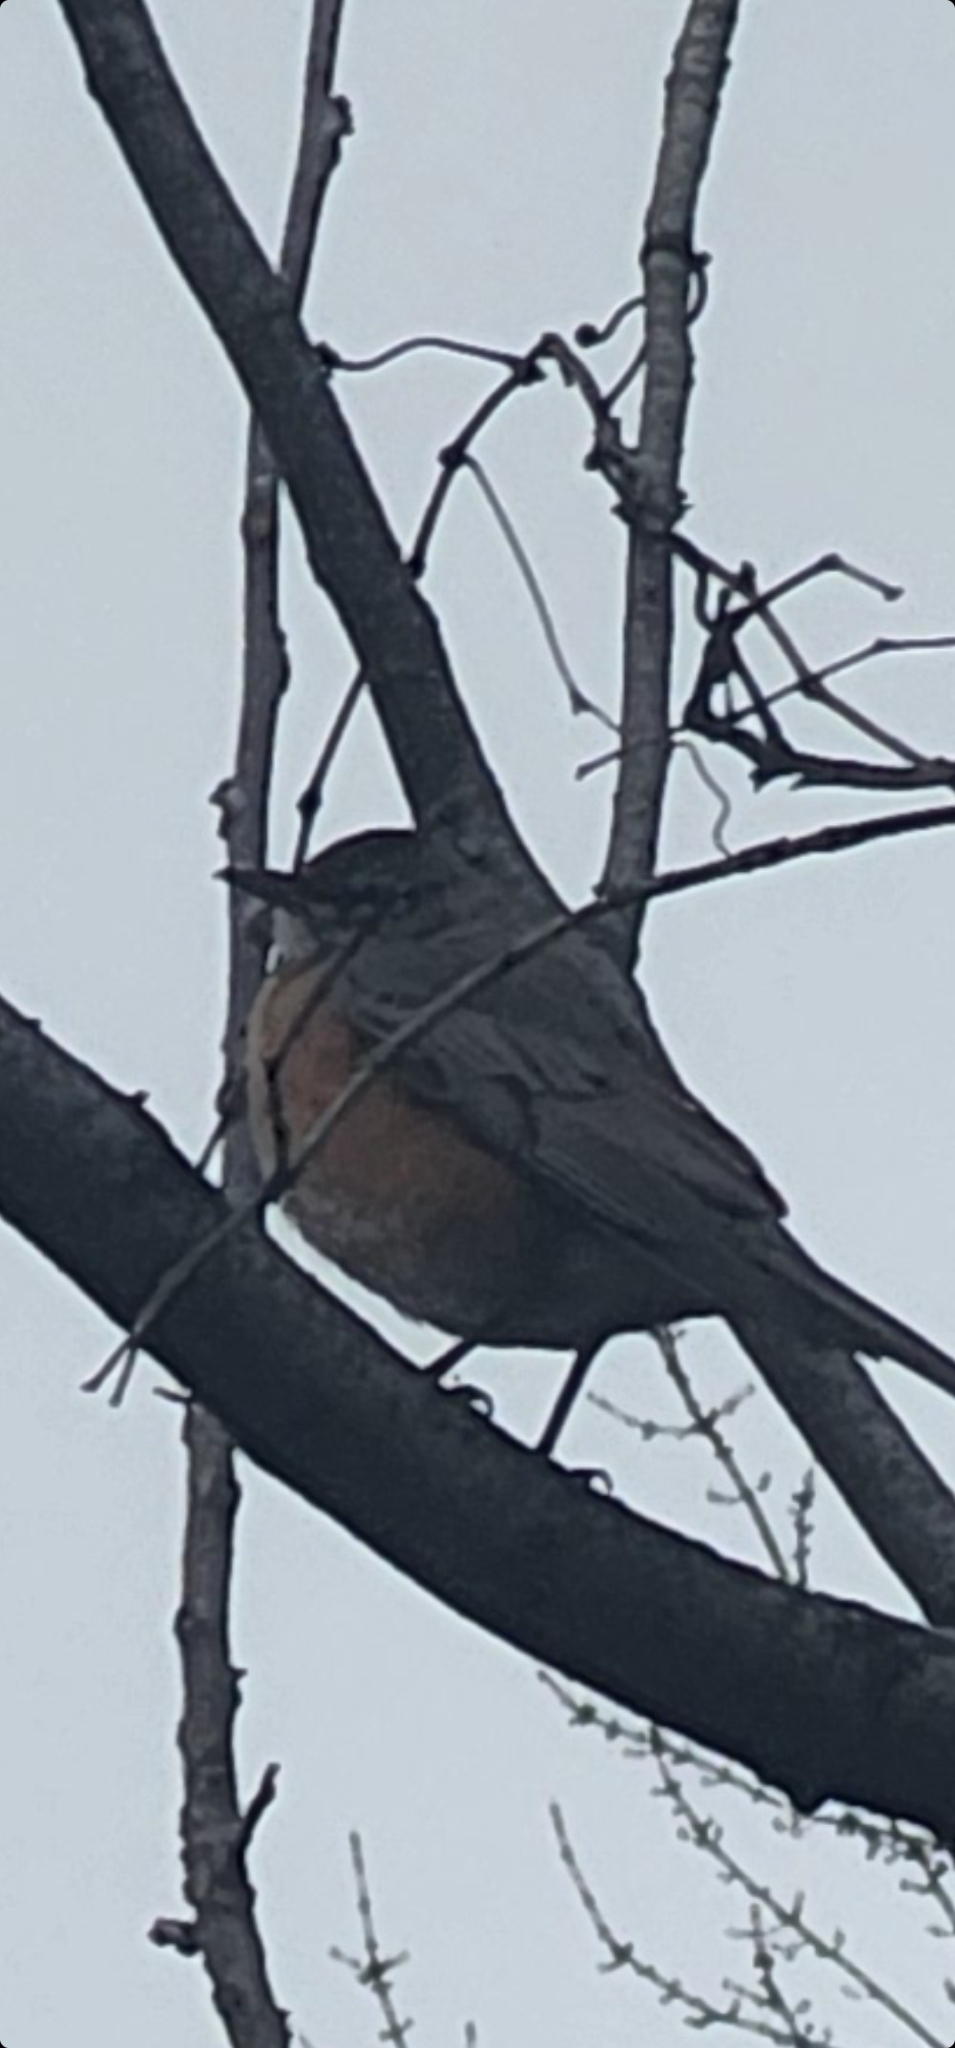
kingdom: Animalia
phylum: Chordata
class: Aves
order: Passeriformes
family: Turdidae
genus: Turdus
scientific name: Turdus migratorius
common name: American robin
